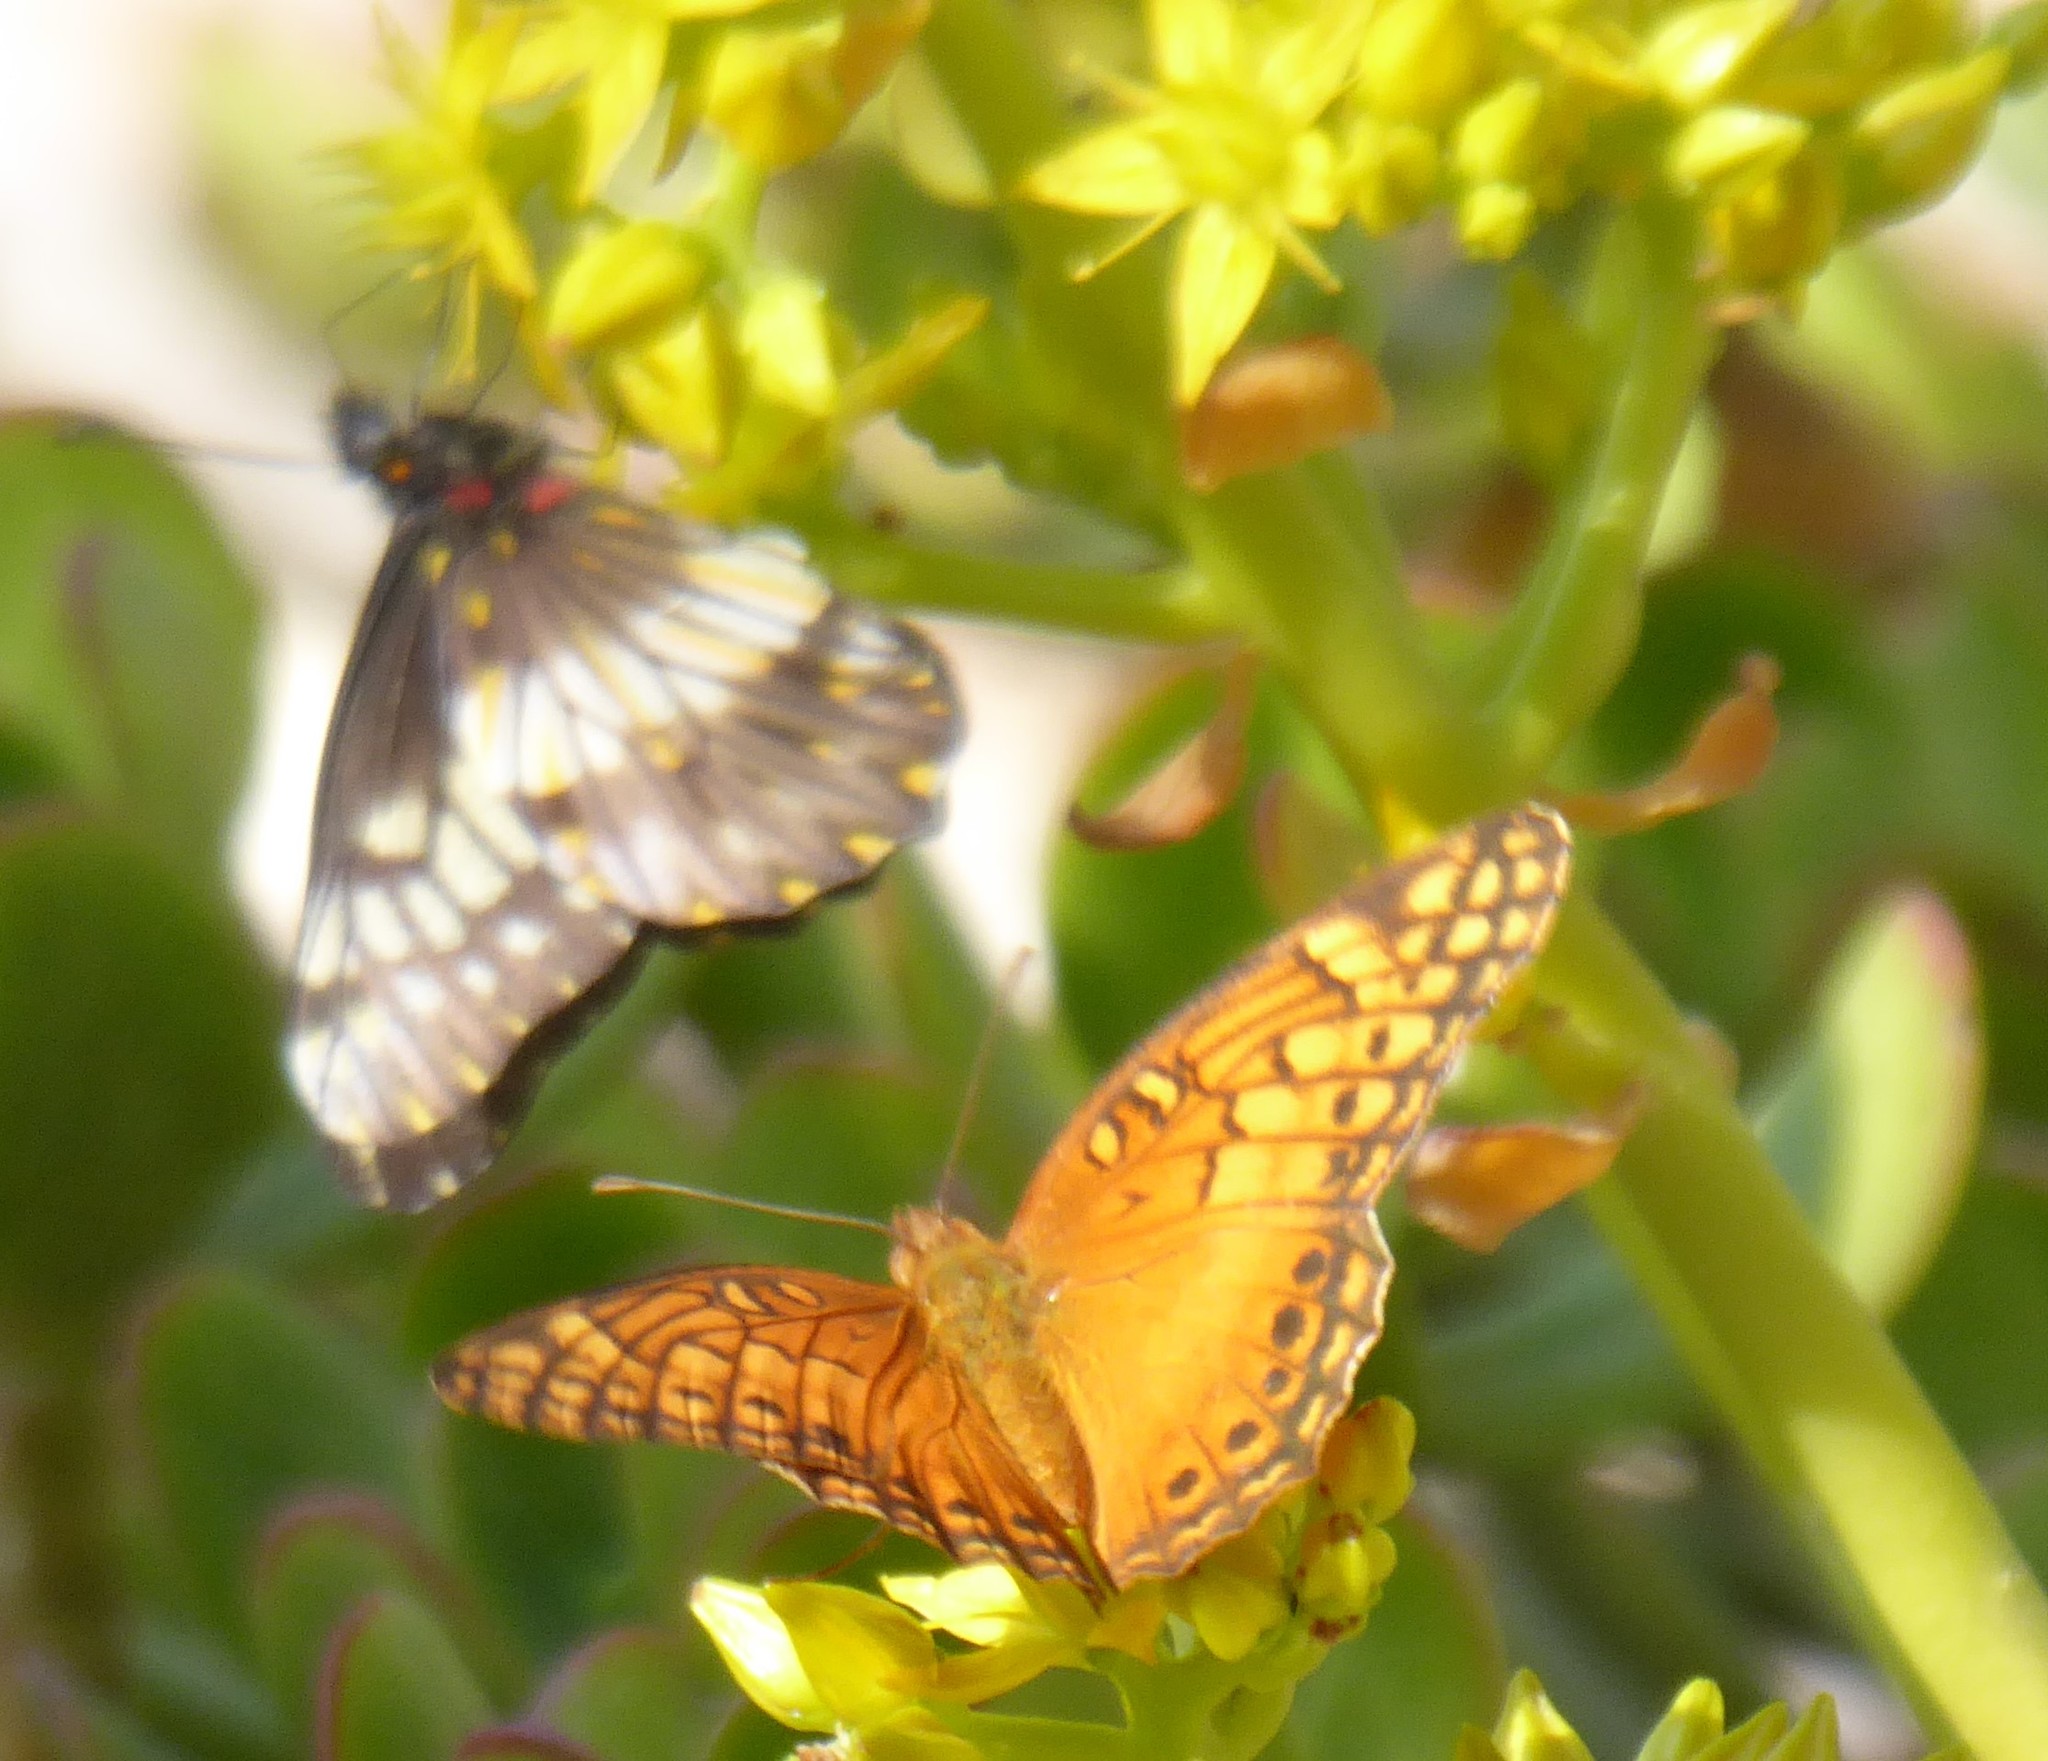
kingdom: Animalia
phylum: Arthropoda
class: Insecta
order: Lepidoptera
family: Nymphalidae
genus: Euptoieta
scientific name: Euptoieta hegesia
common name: Mexican fritillary
